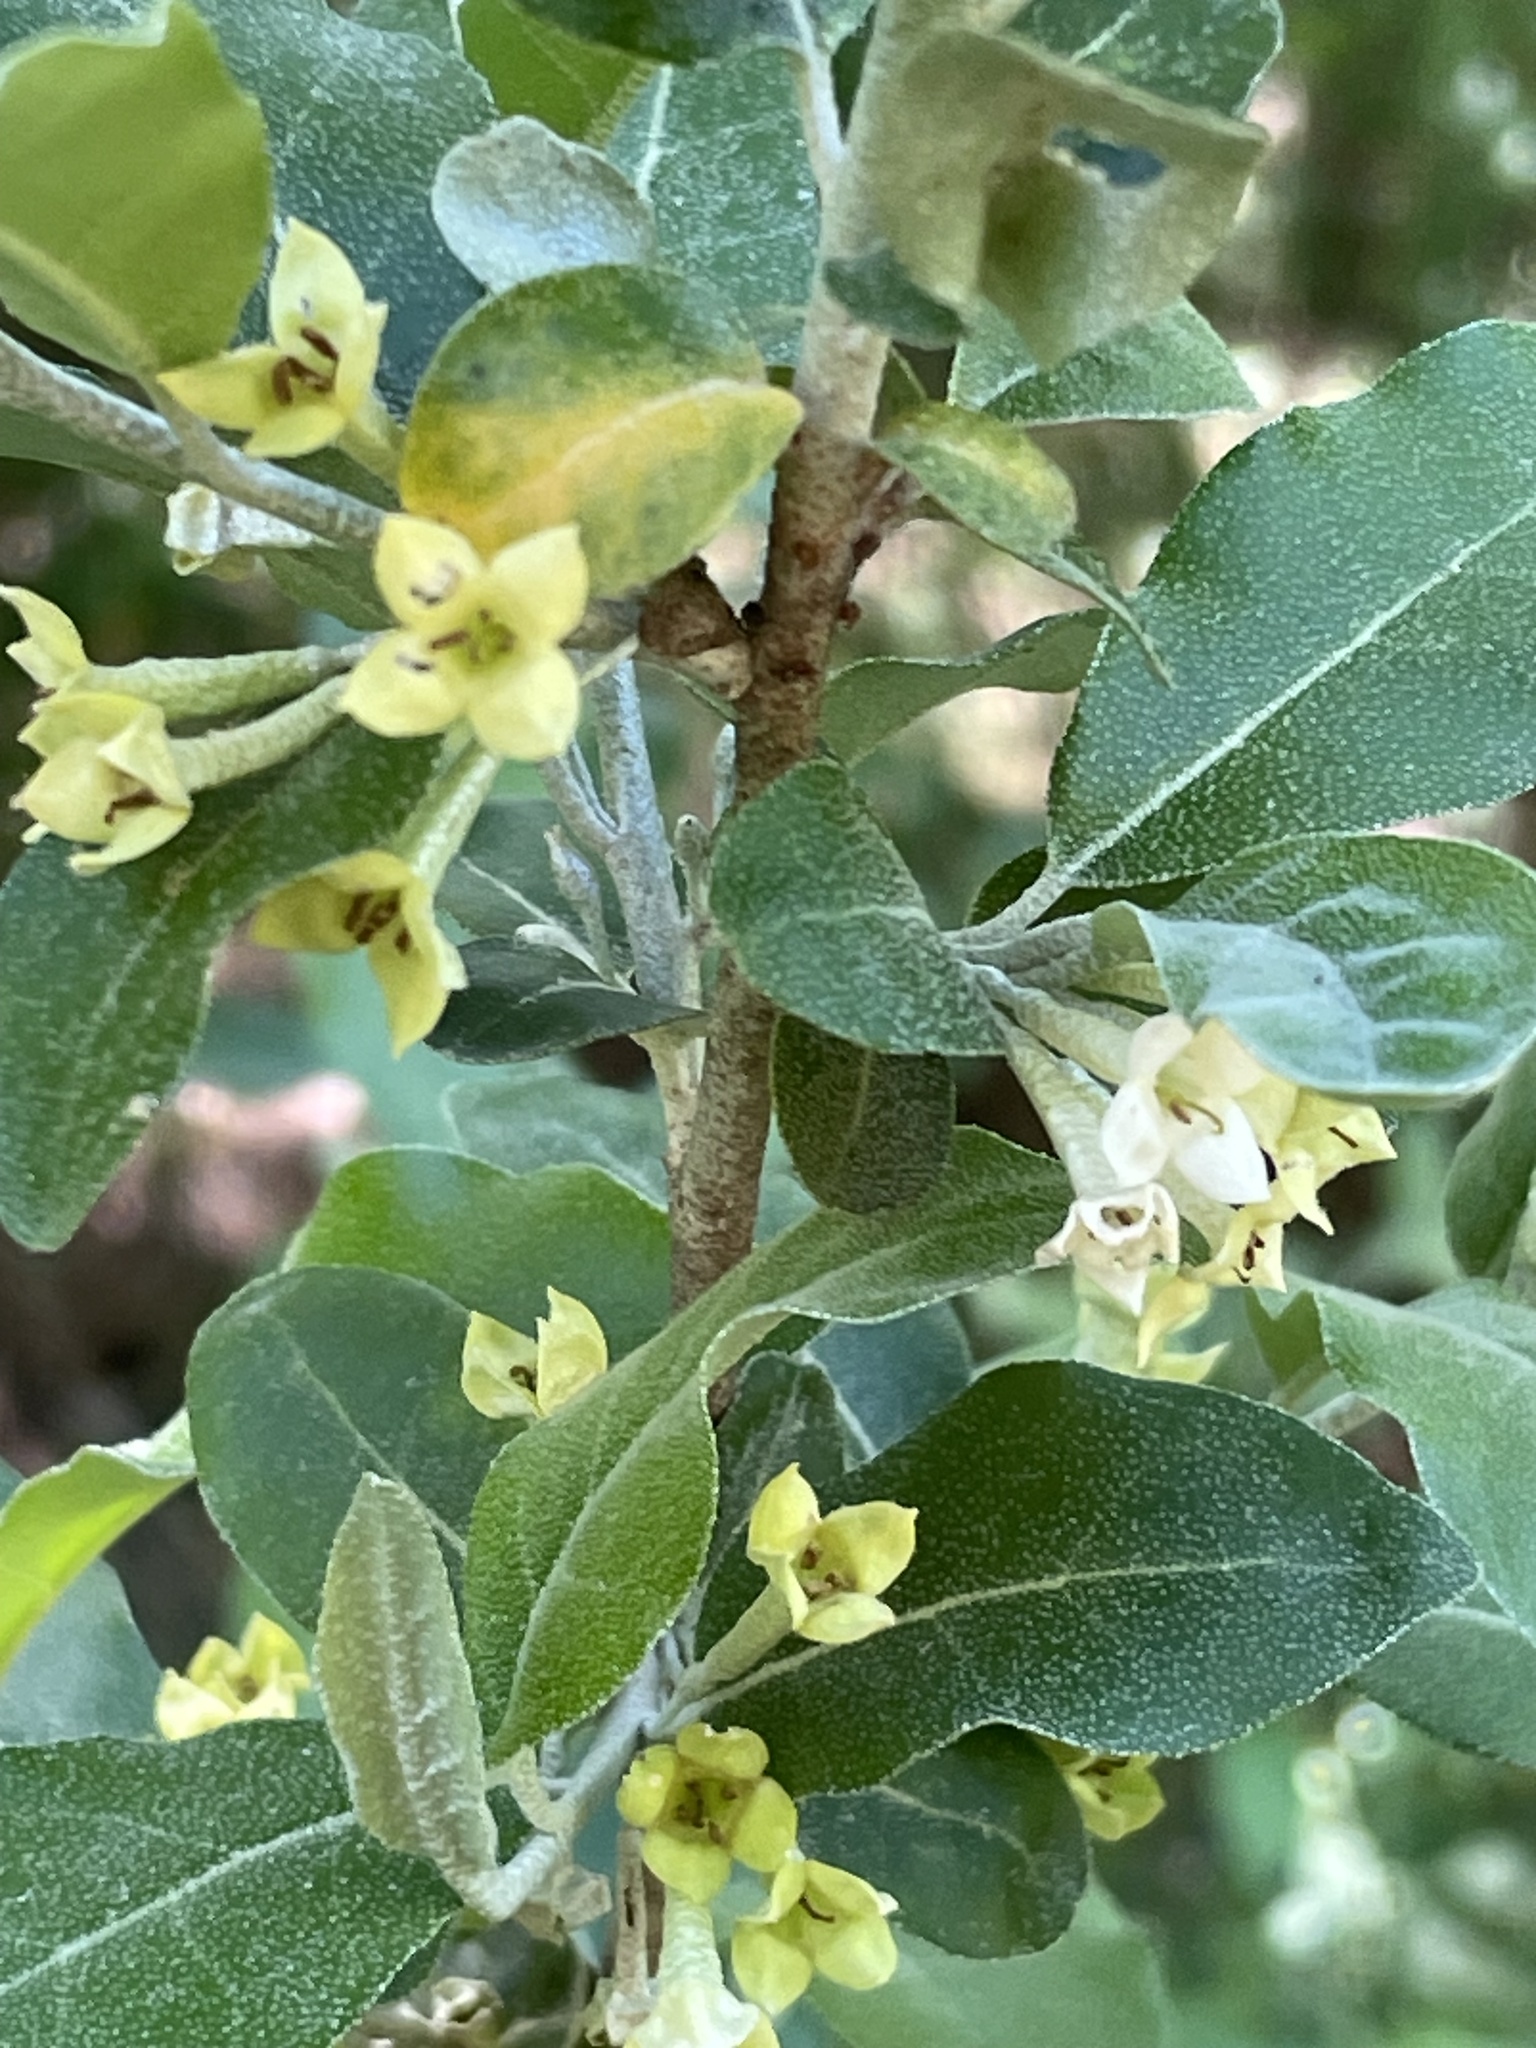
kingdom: Plantae
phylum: Tracheophyta
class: Magnoliopsida
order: Rosales
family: Elaeagnaceae
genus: Elaeagnus
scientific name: Elaeagnus umbellata
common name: Autumn olive
